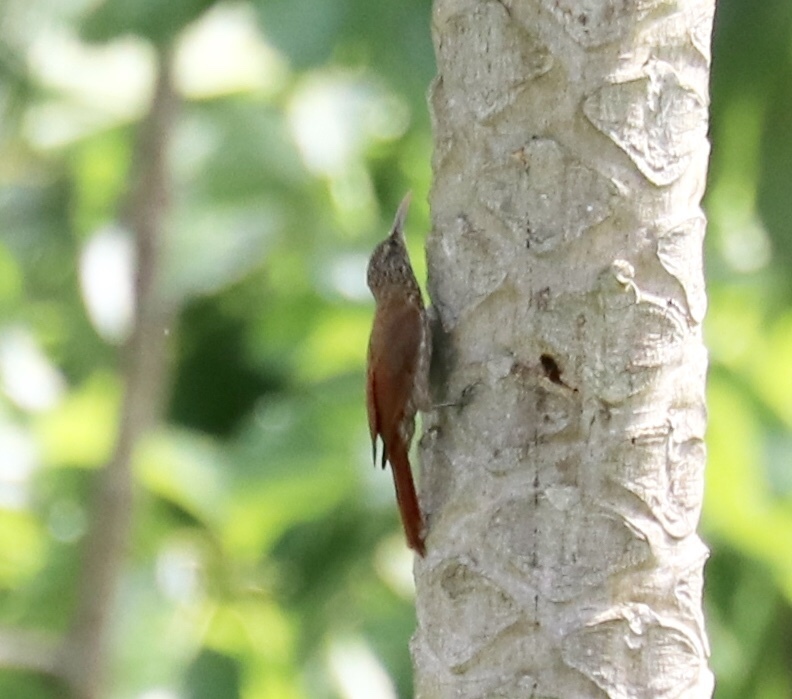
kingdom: Animalia
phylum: Chordata
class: Aves
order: Passeriformes
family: Furnariidae
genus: Lepidocolaptes
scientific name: Lepidocolaptes souleyetii
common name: Streak-headed woodcreeper
